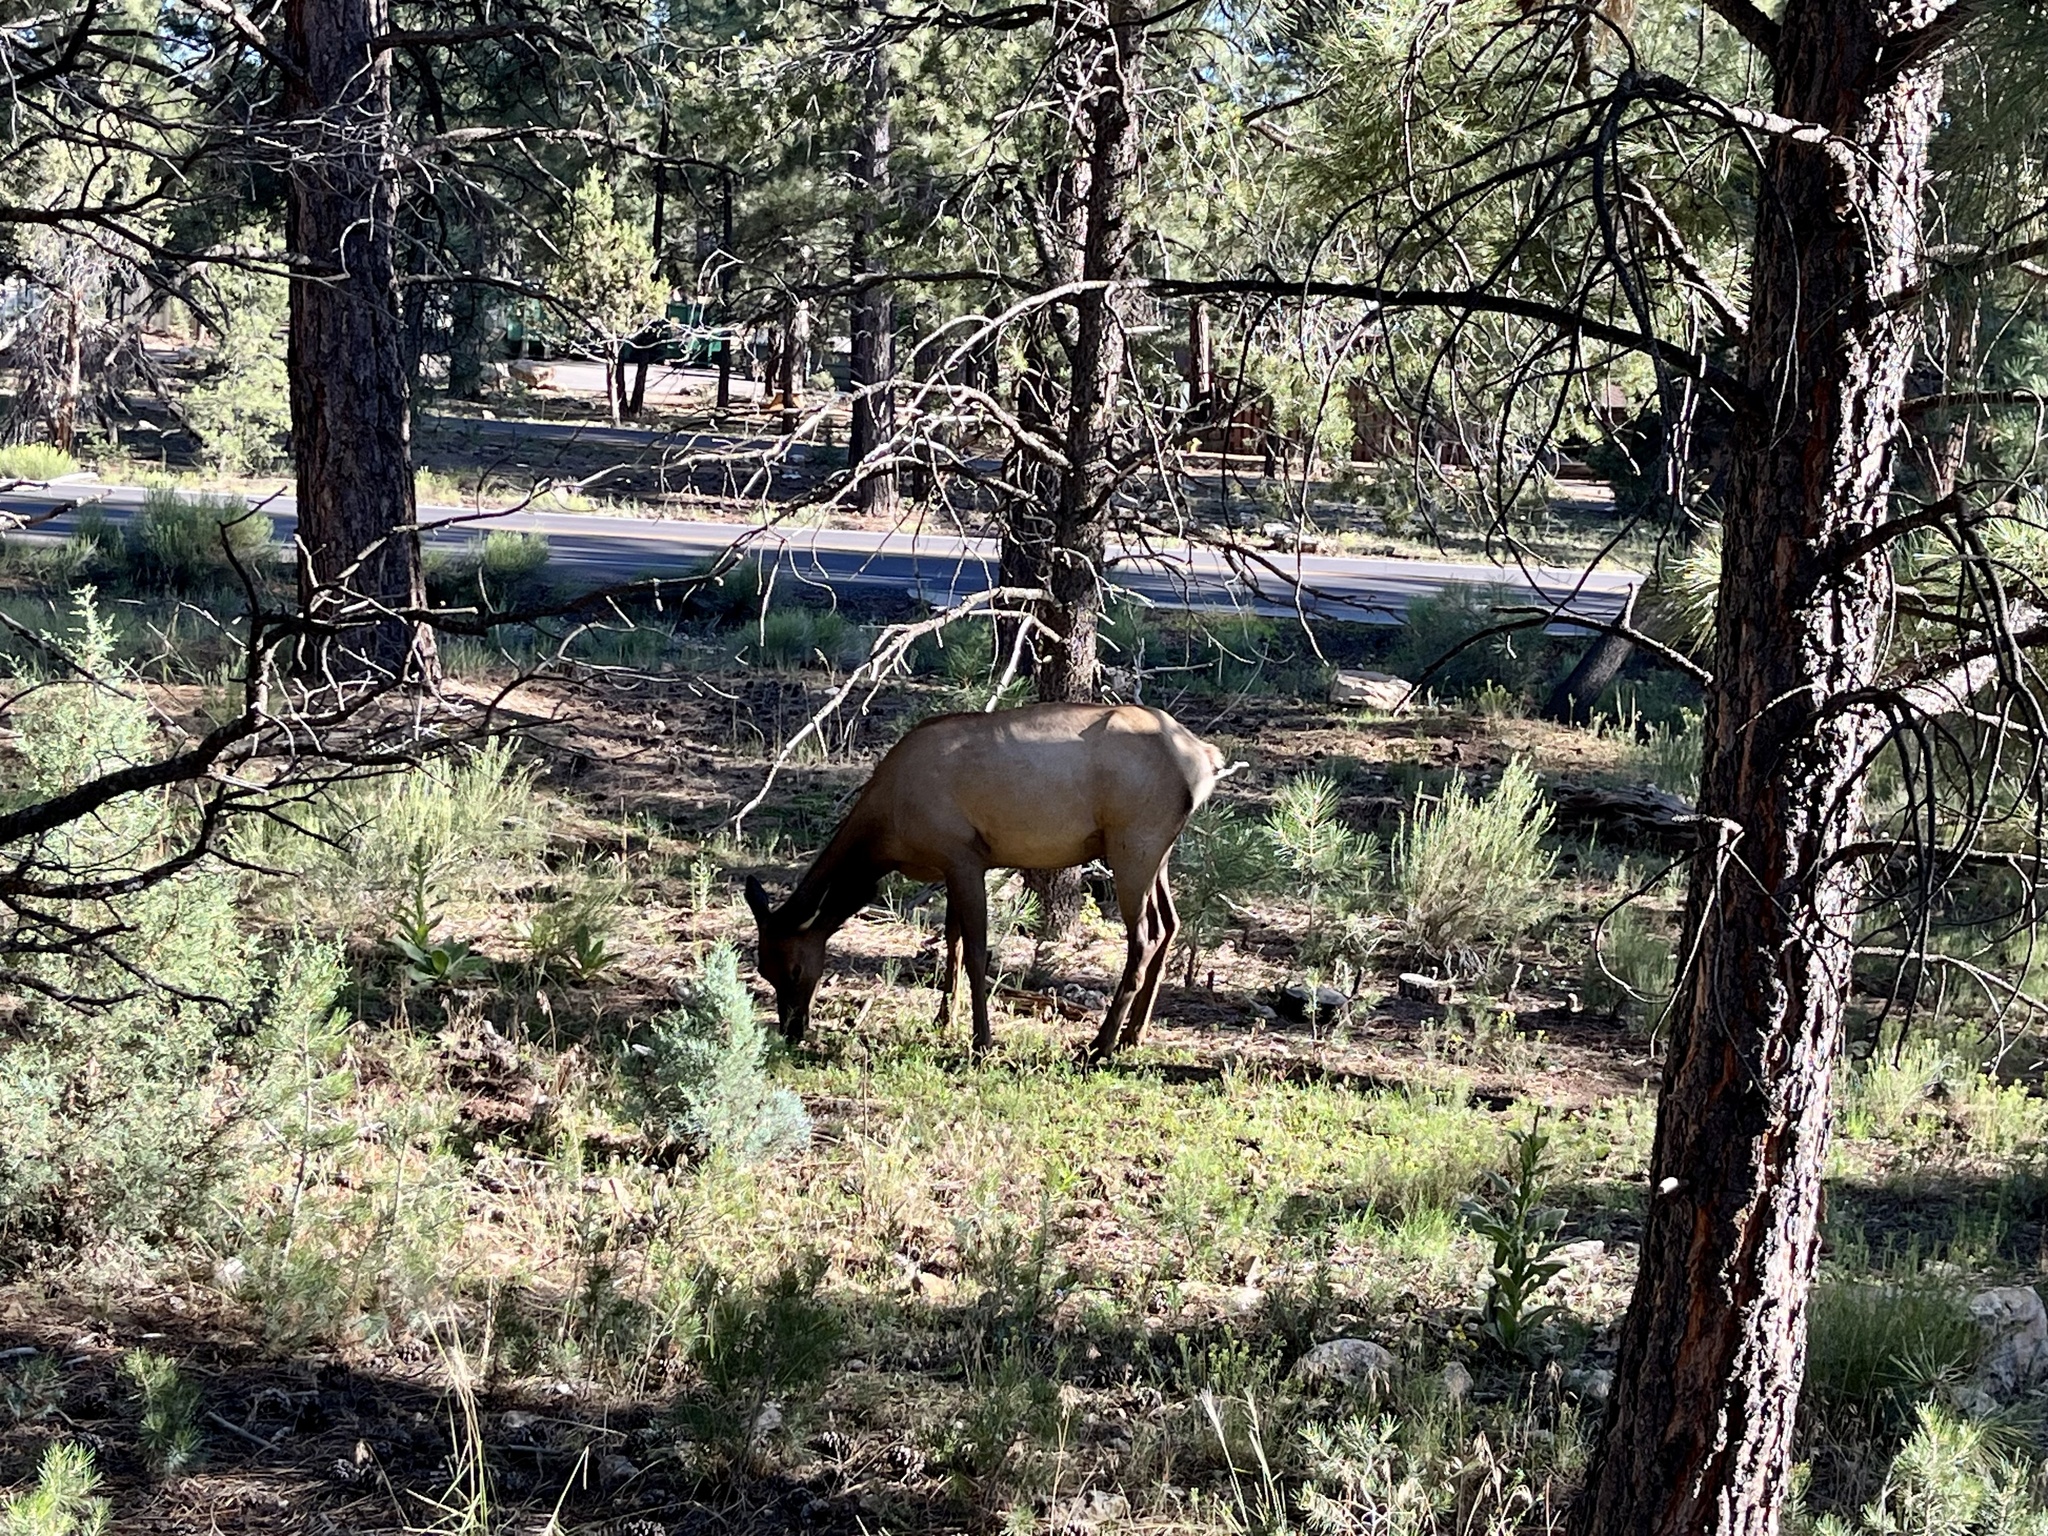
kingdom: Animalia
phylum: Chordata
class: Mammalia
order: Artiodactyla
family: Cervidae
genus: Cervus
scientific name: Cervus elaphus
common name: Red deer
